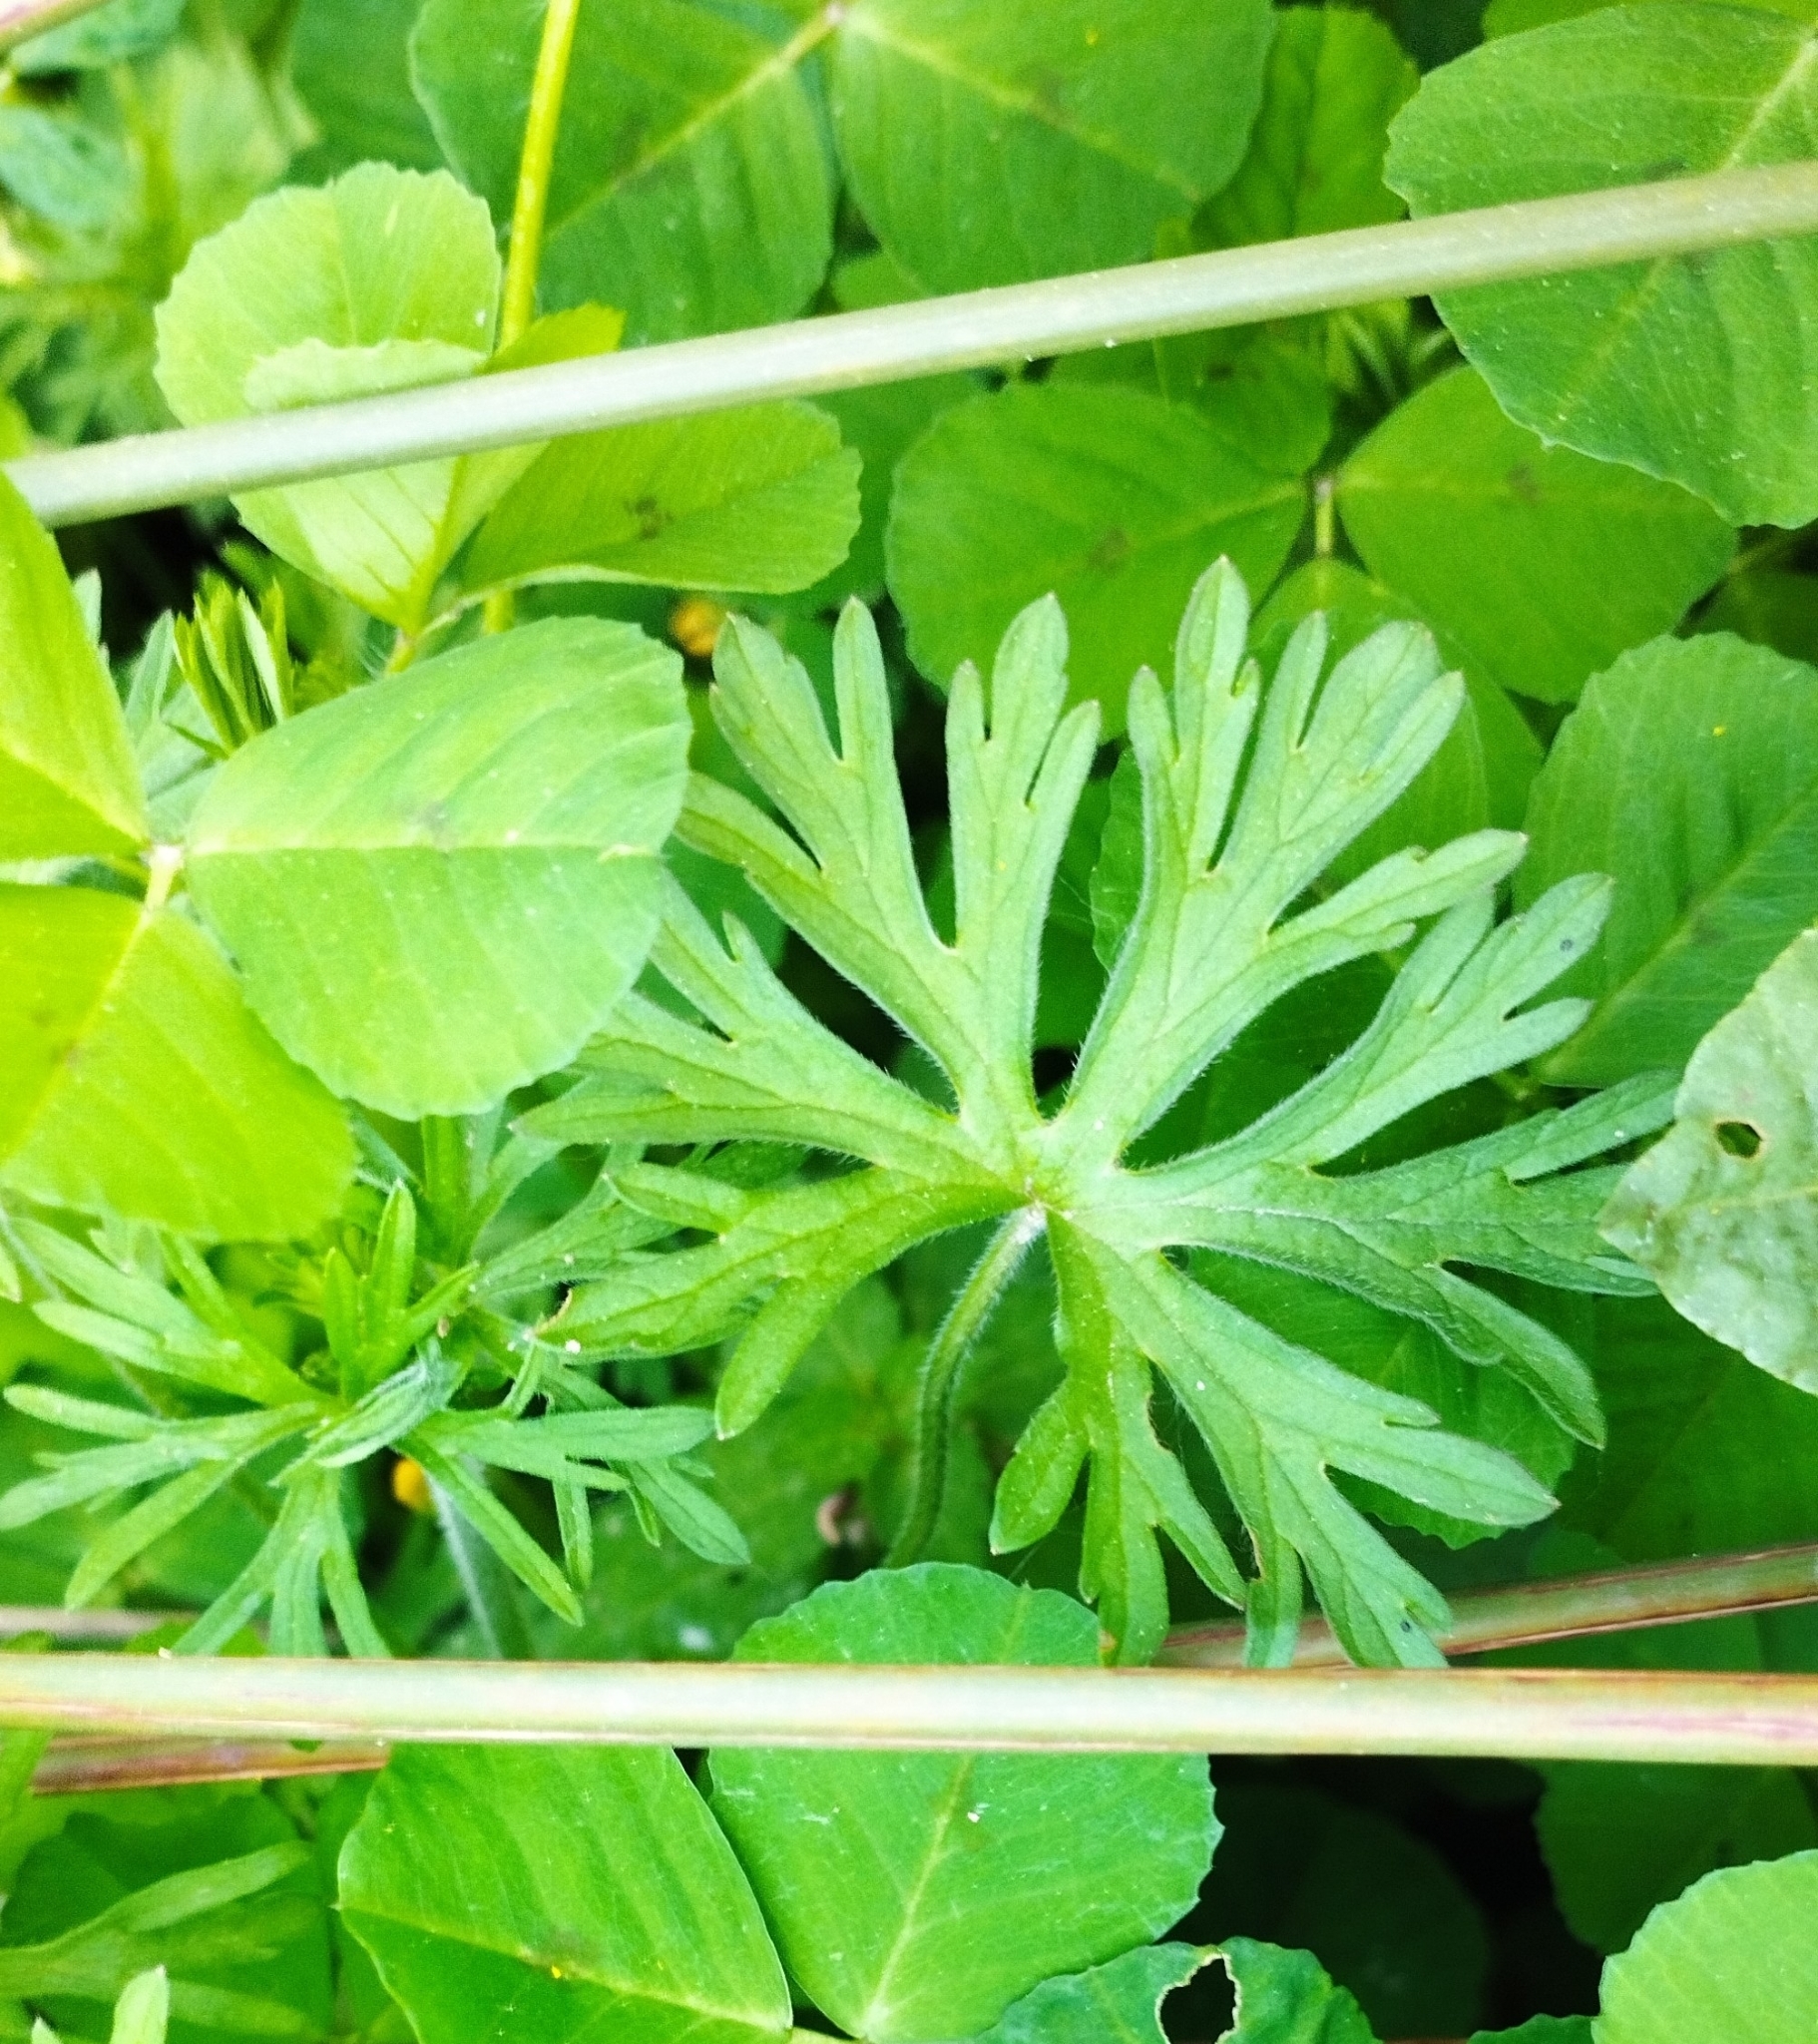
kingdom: Plantae
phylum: Tracheophyta
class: Magnoliopsida
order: Geraniales
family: Geraniaceae
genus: Geranium
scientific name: Geranium dissectum
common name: Cut-leaved crane's-bill
